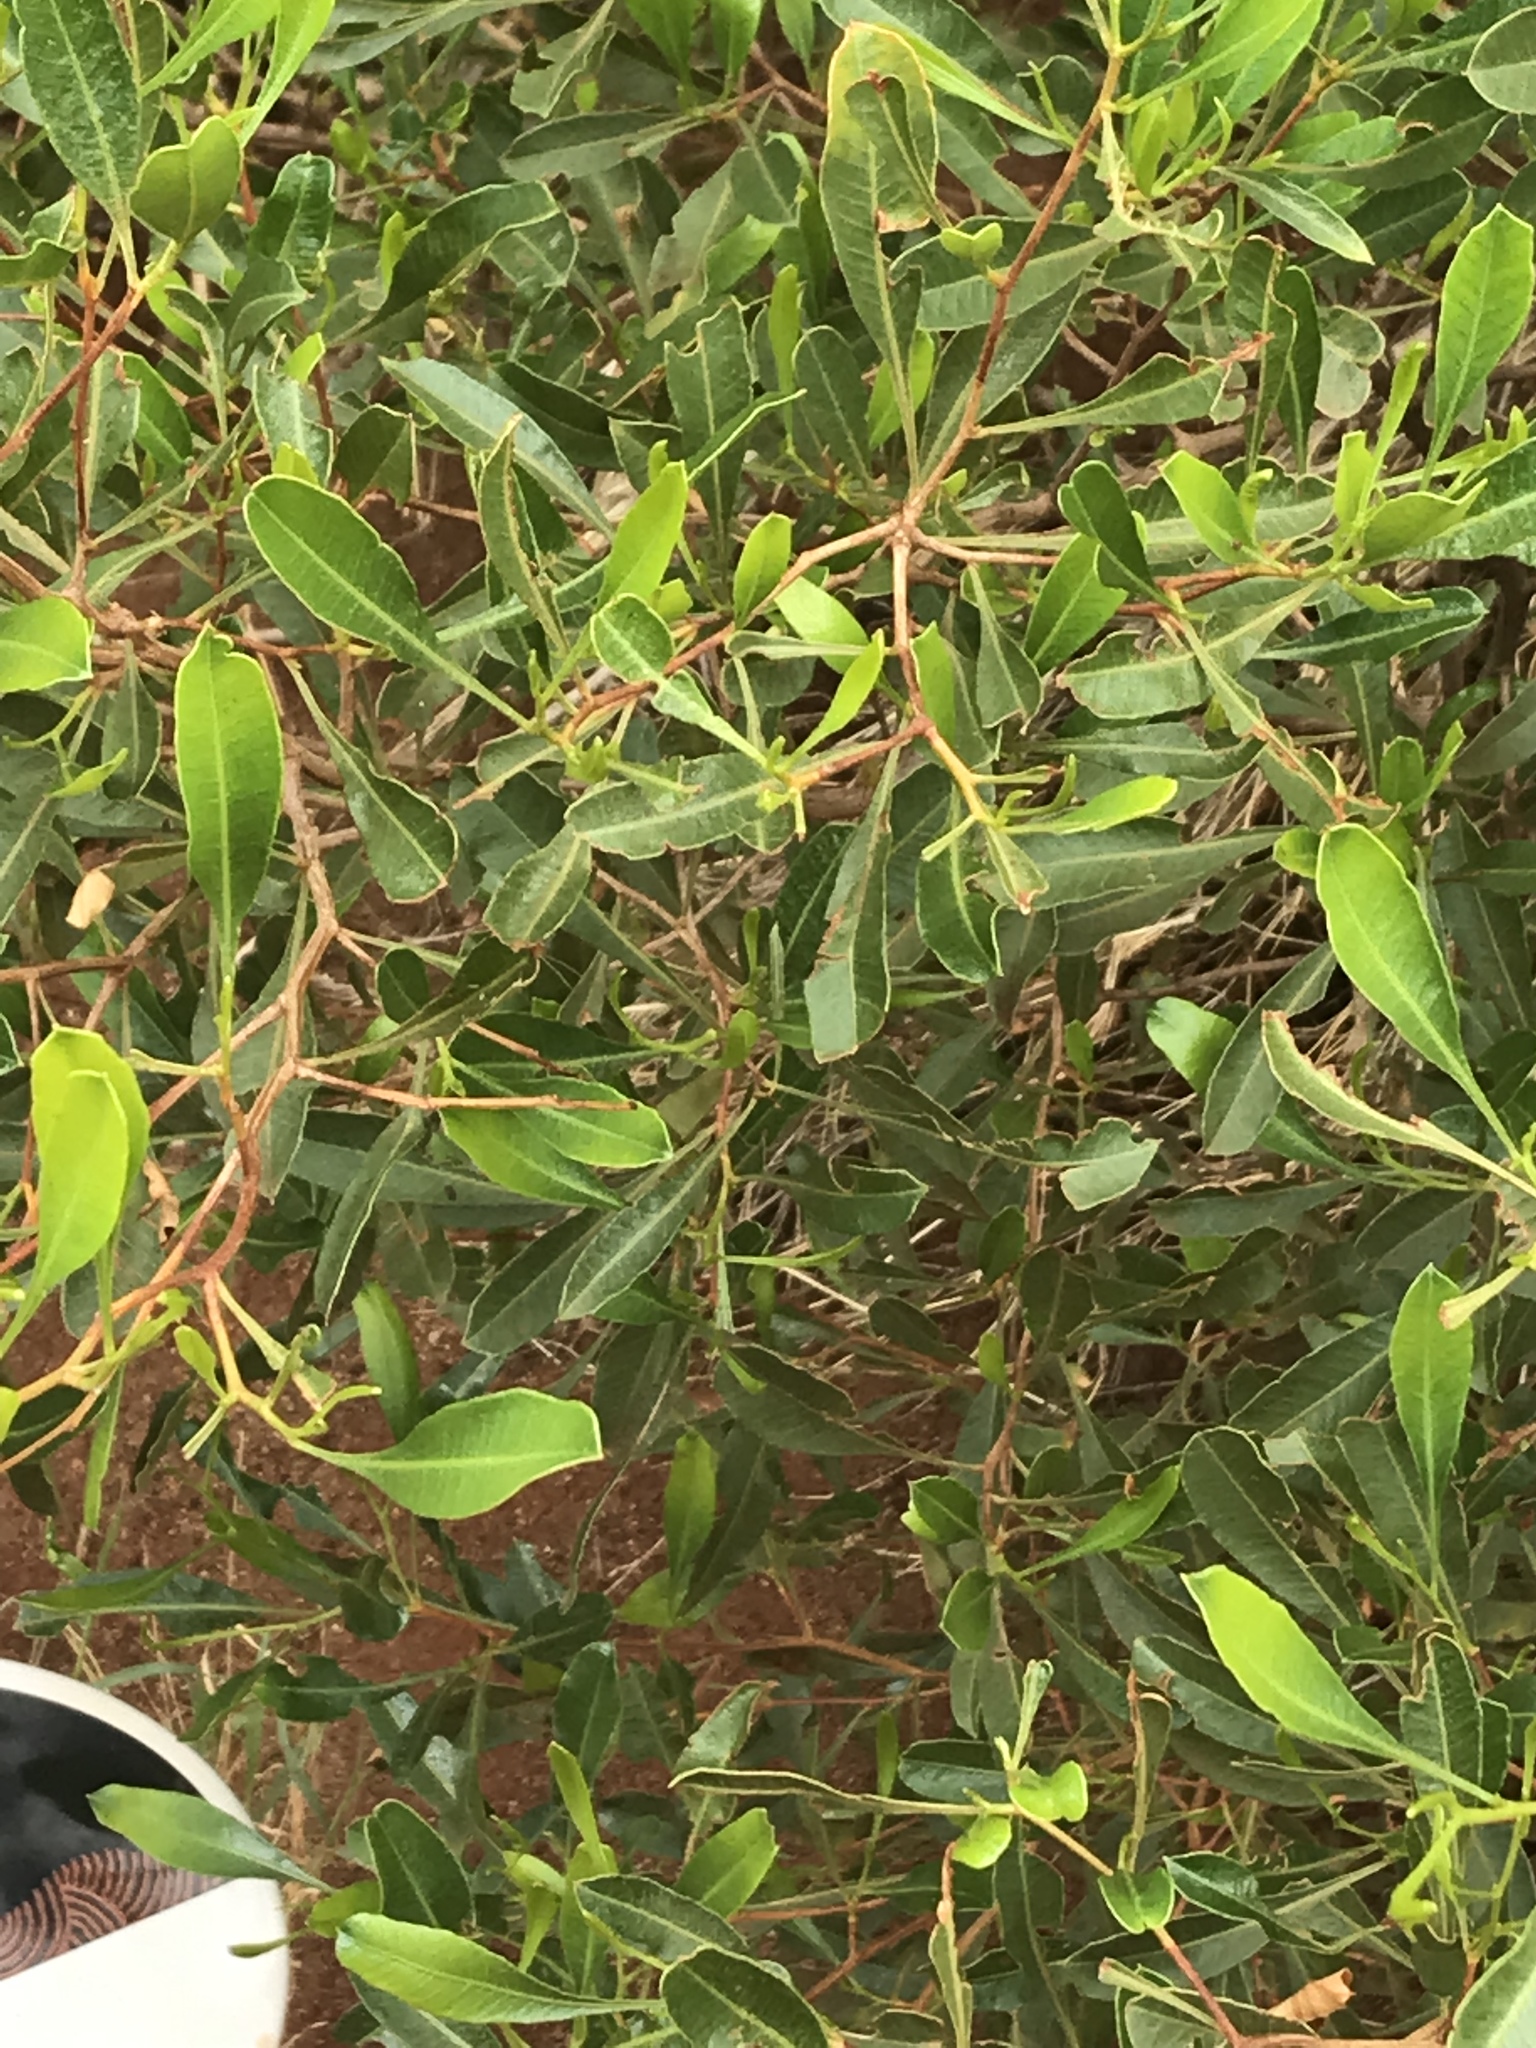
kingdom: Plantae
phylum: Tracheophyta
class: Magnoliopsida
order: Sapindales
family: Sapindaceae
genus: Dodonaea
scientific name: Dodonaea viscosa
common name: Hopbush
